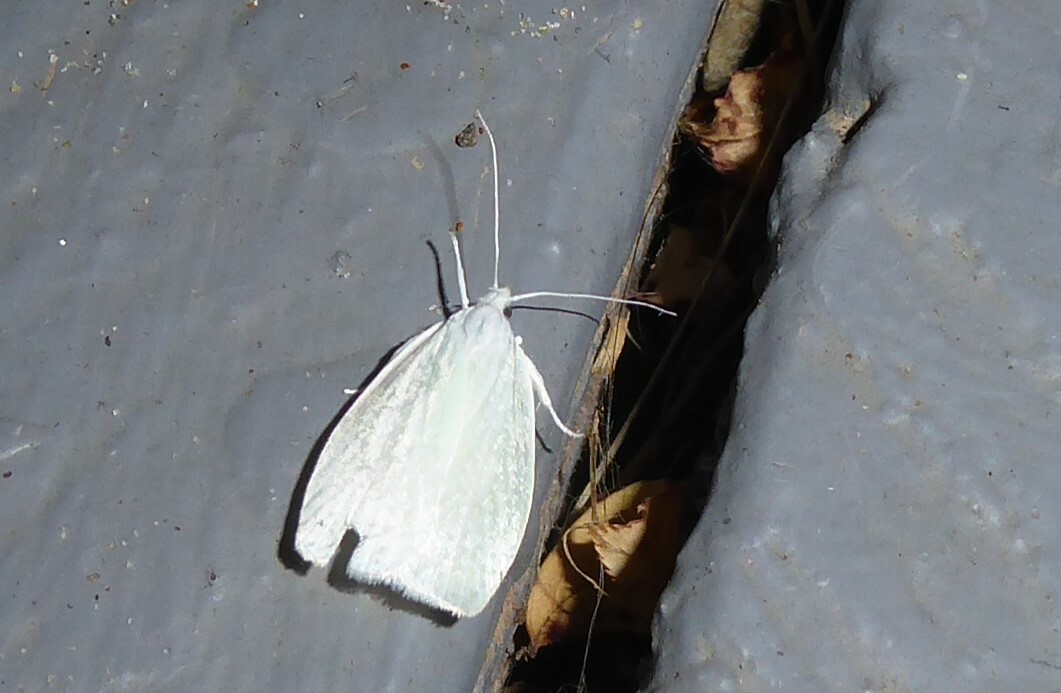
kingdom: Animalia
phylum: Arthropoda
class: Insecta
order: Lepidoptera
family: Oecophoridae
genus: Nymphostola
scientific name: Nymphostola galactina
